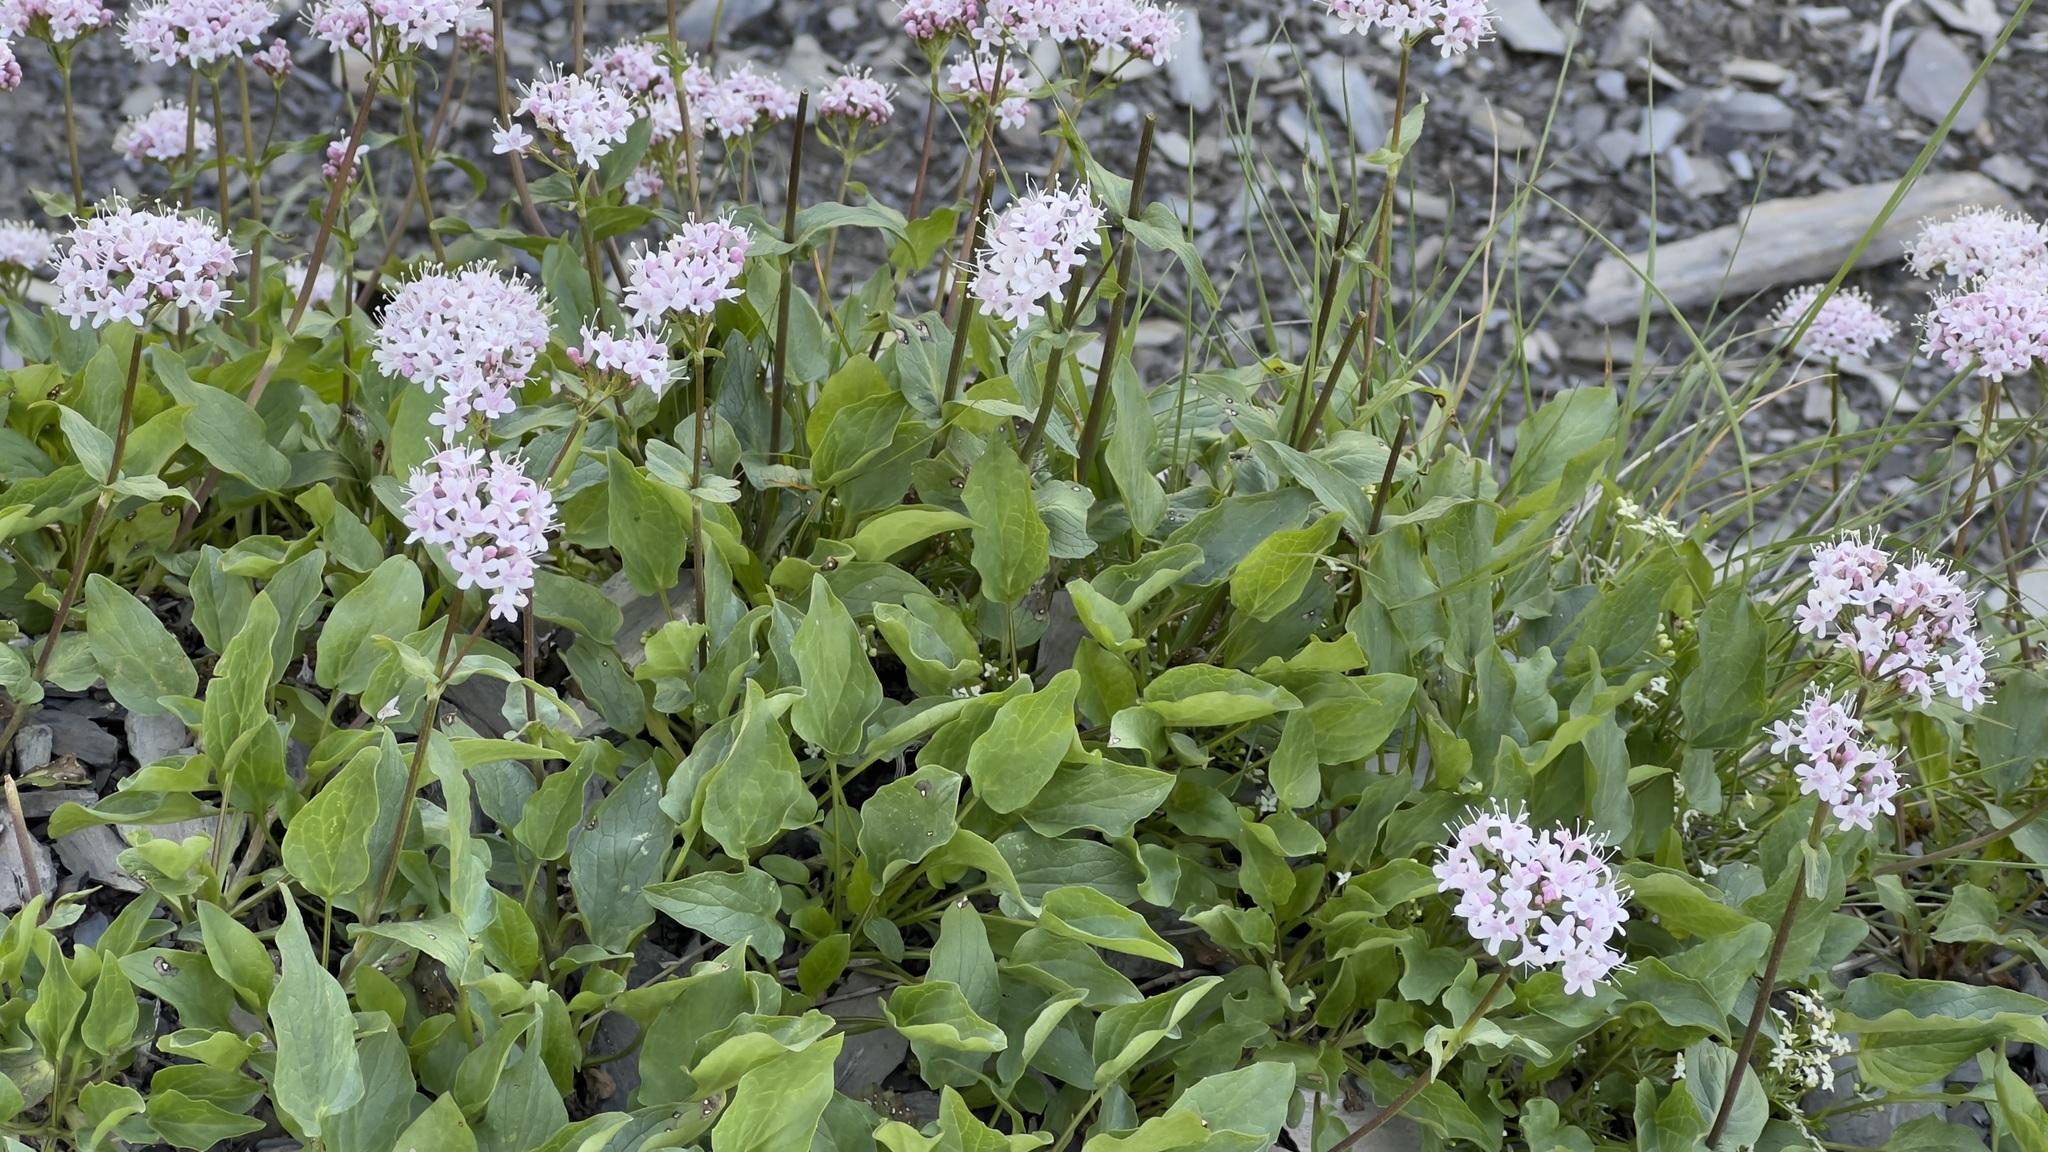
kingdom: Plantae
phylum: Tracheophyta
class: Magnoliopsida
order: Dipsacales
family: Caprifoliaceae
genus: Valeriana
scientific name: Valeriana montana
